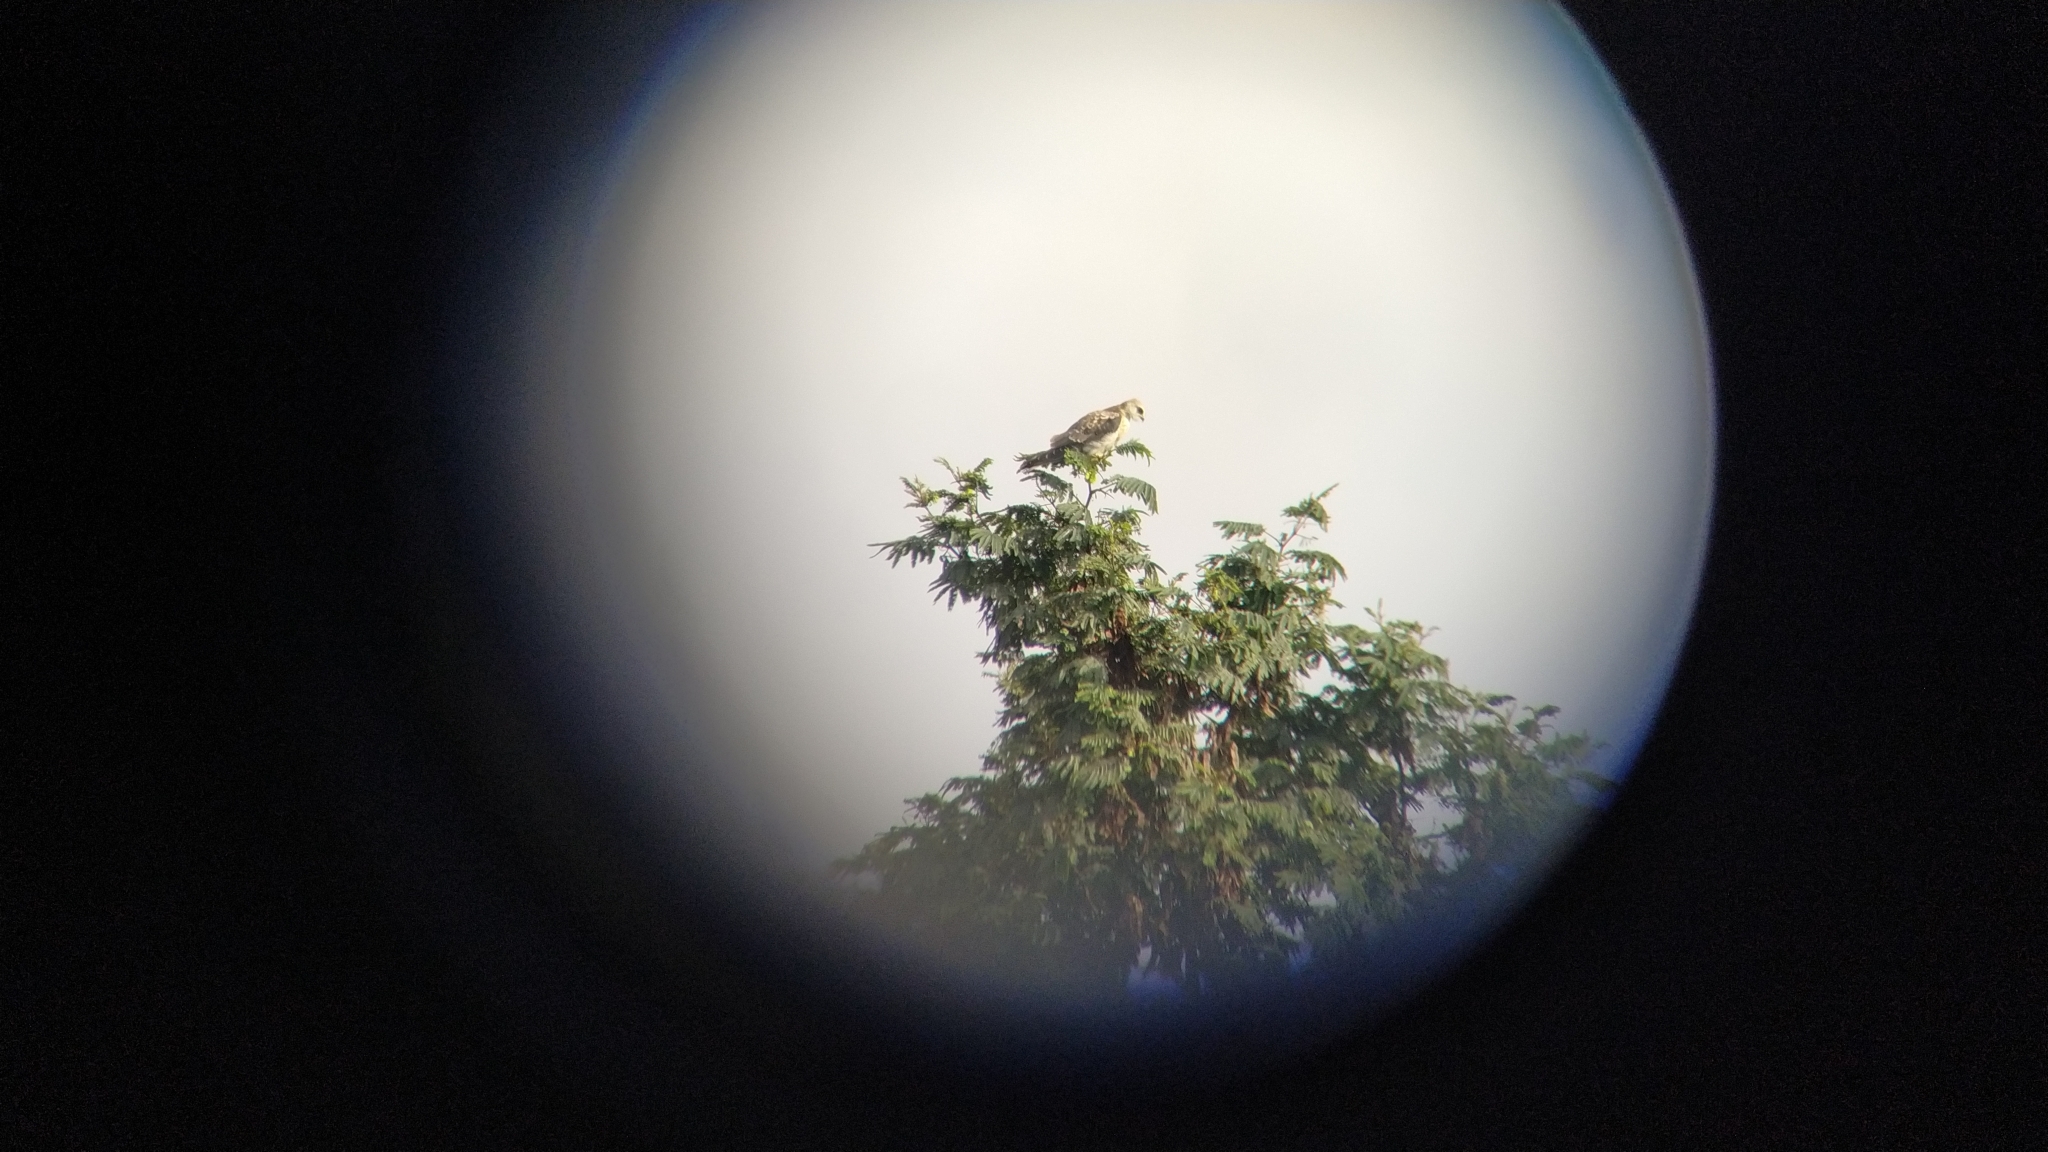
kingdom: Animalia
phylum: Chordata
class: Aves
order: Accipitriformes
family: Accipitridae
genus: Elanus
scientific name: Elanus leucurus
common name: White-tailed kite
